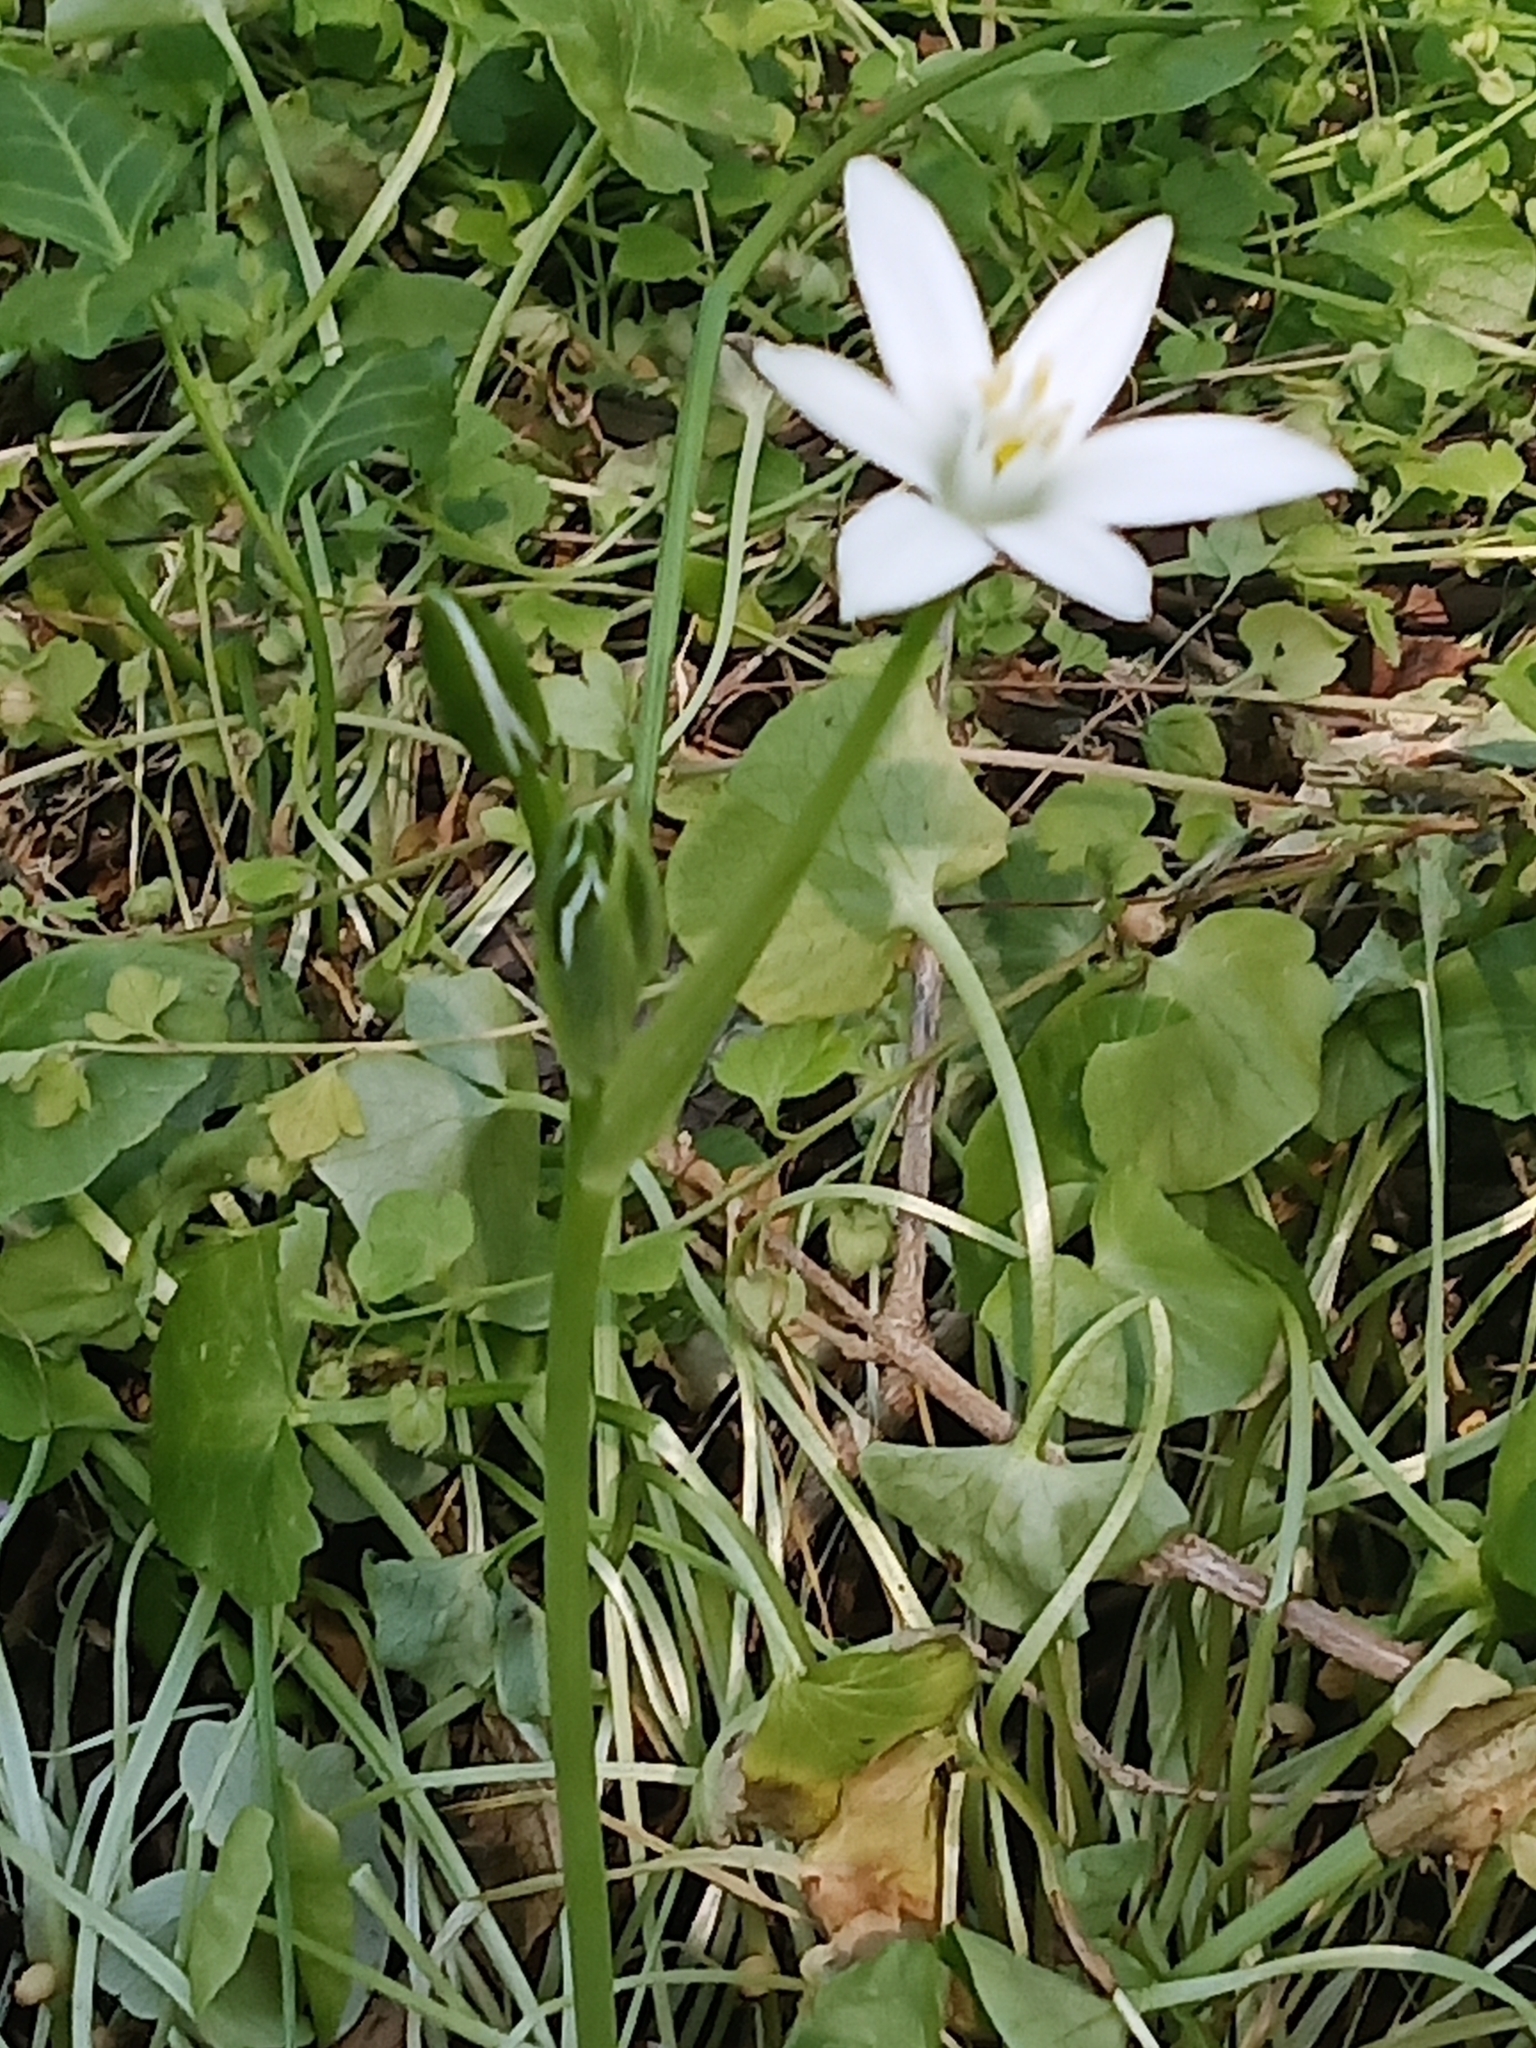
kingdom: Plantae
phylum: Tracheophyta
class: Liliopsida
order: Asparagales
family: Asparagaceae
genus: Ornithogalum
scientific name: Ornithogalum umbellatum
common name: Garden star-of-bethlehem
